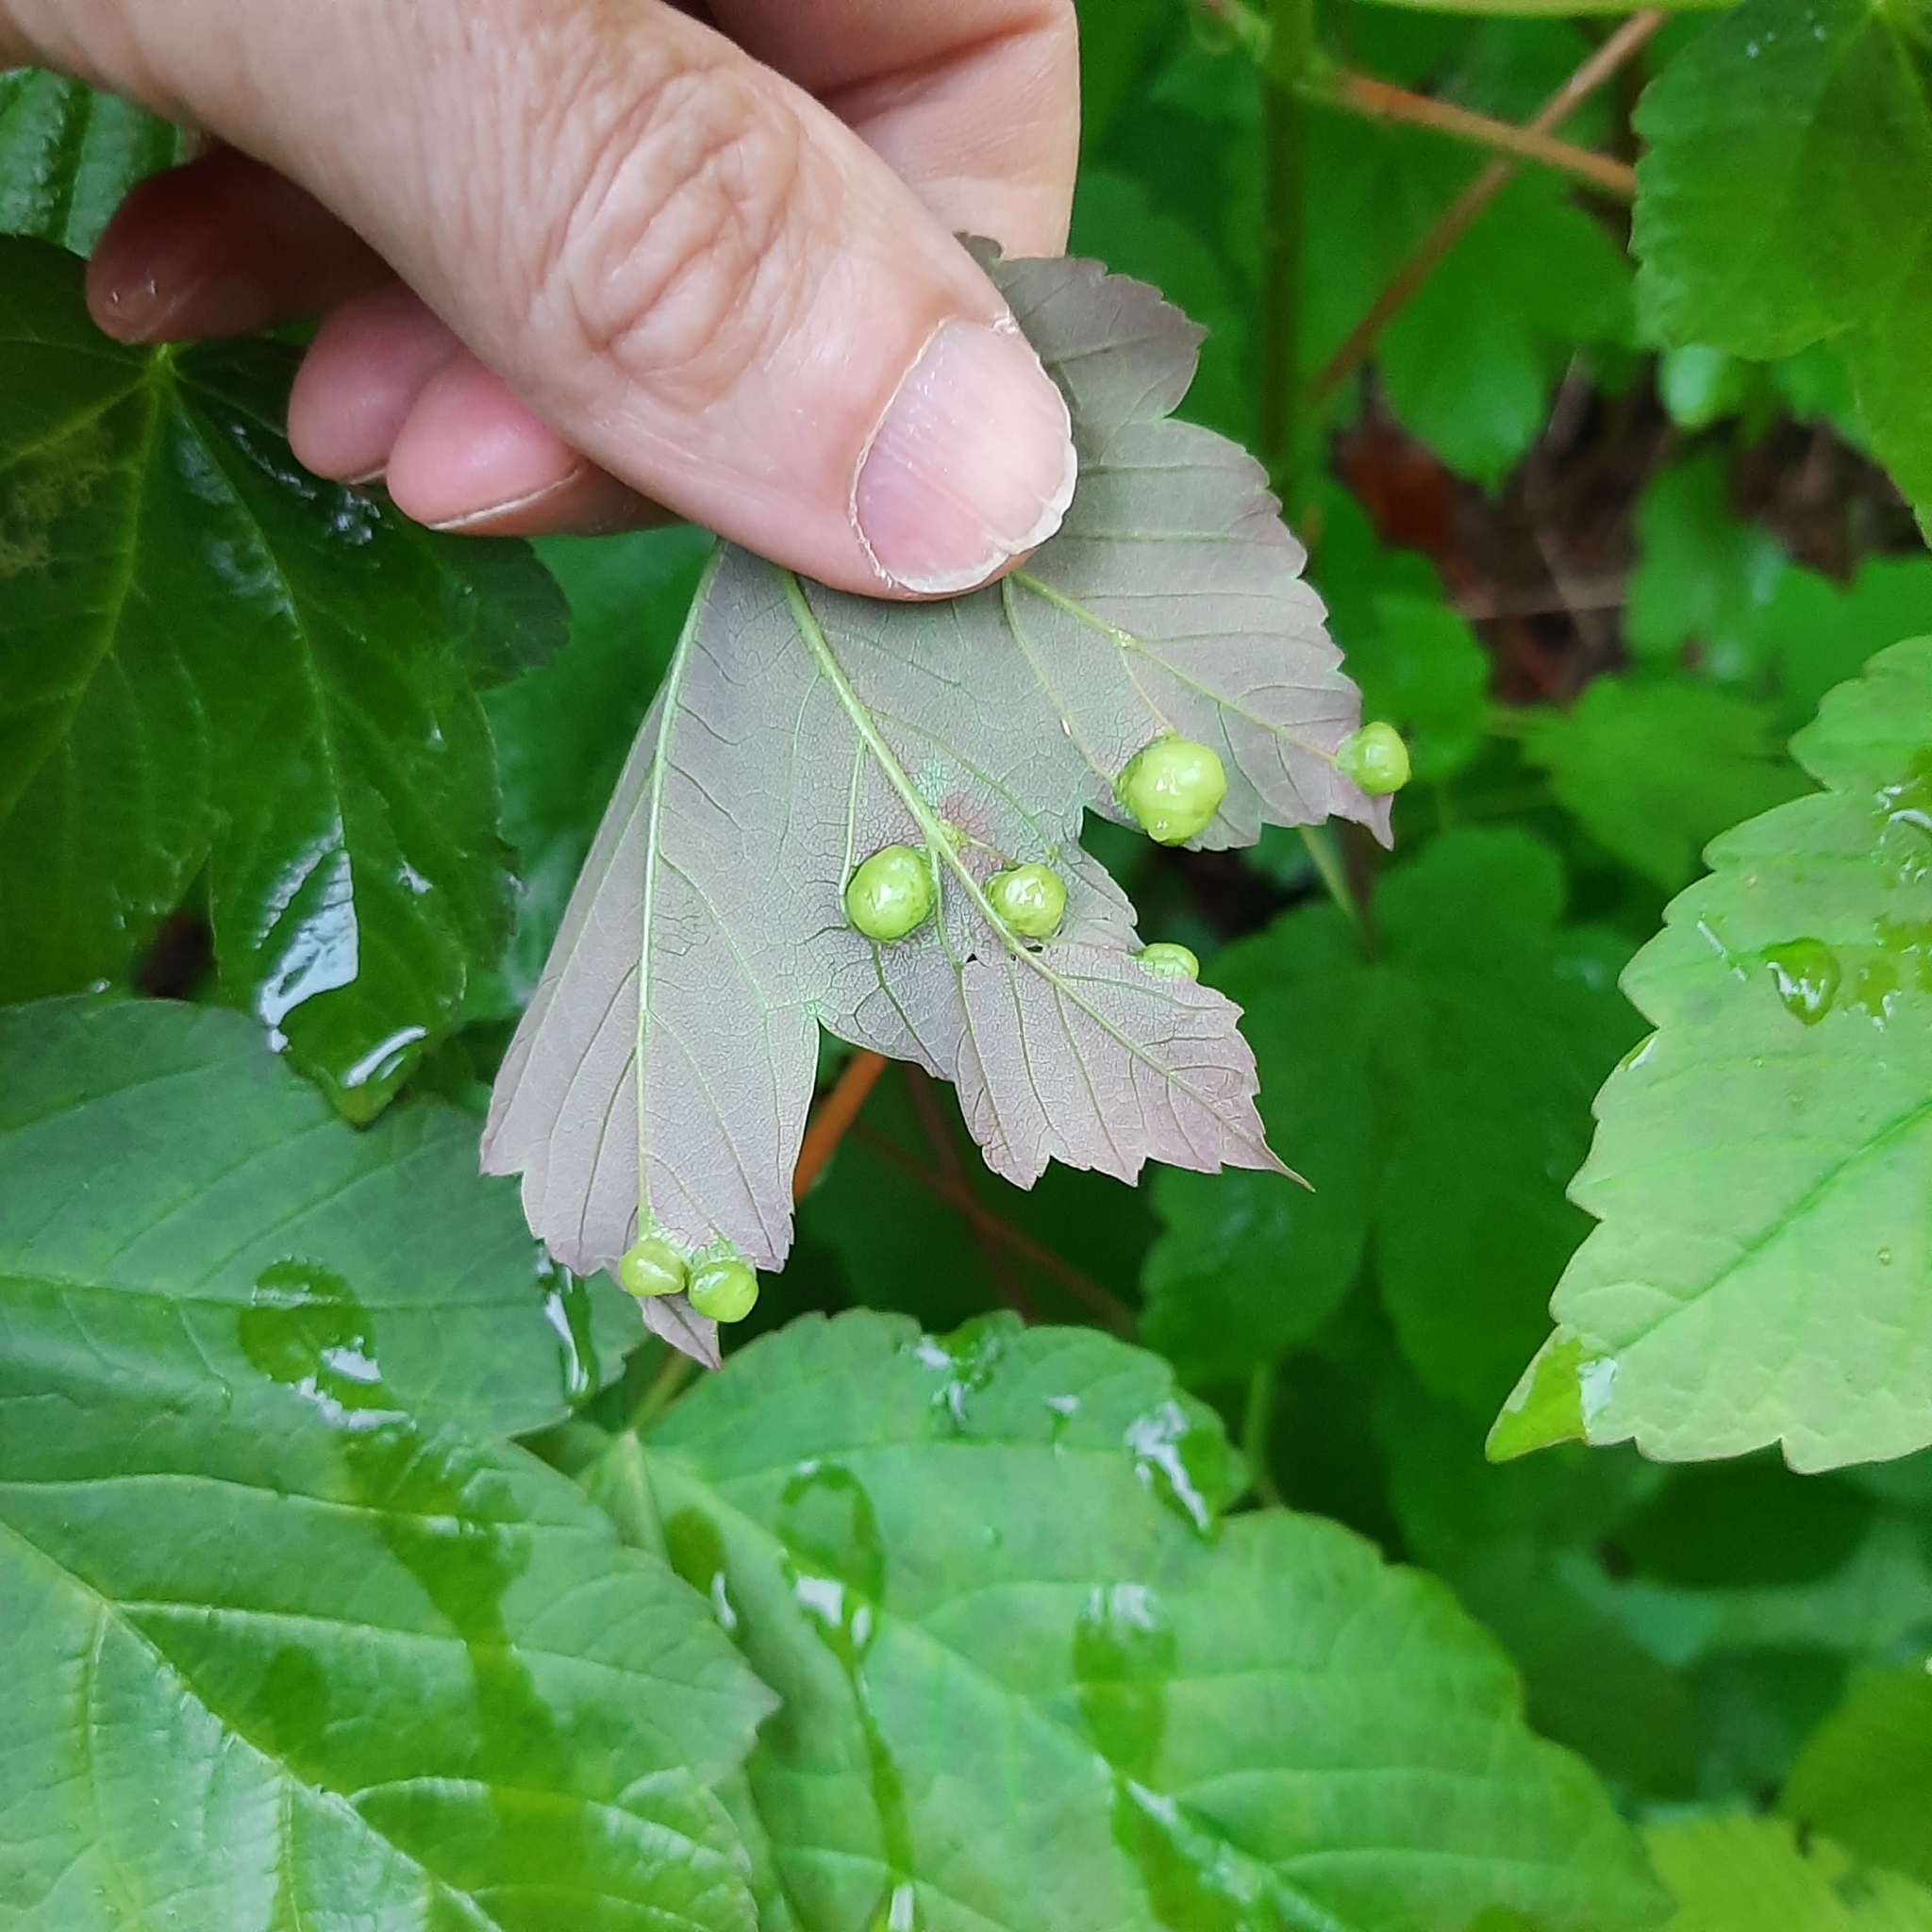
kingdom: Animalia
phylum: Arthropoda
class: Insecta
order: Hymenoptera
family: Cynipidae
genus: Pediaspis
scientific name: Pediaspis aceris
